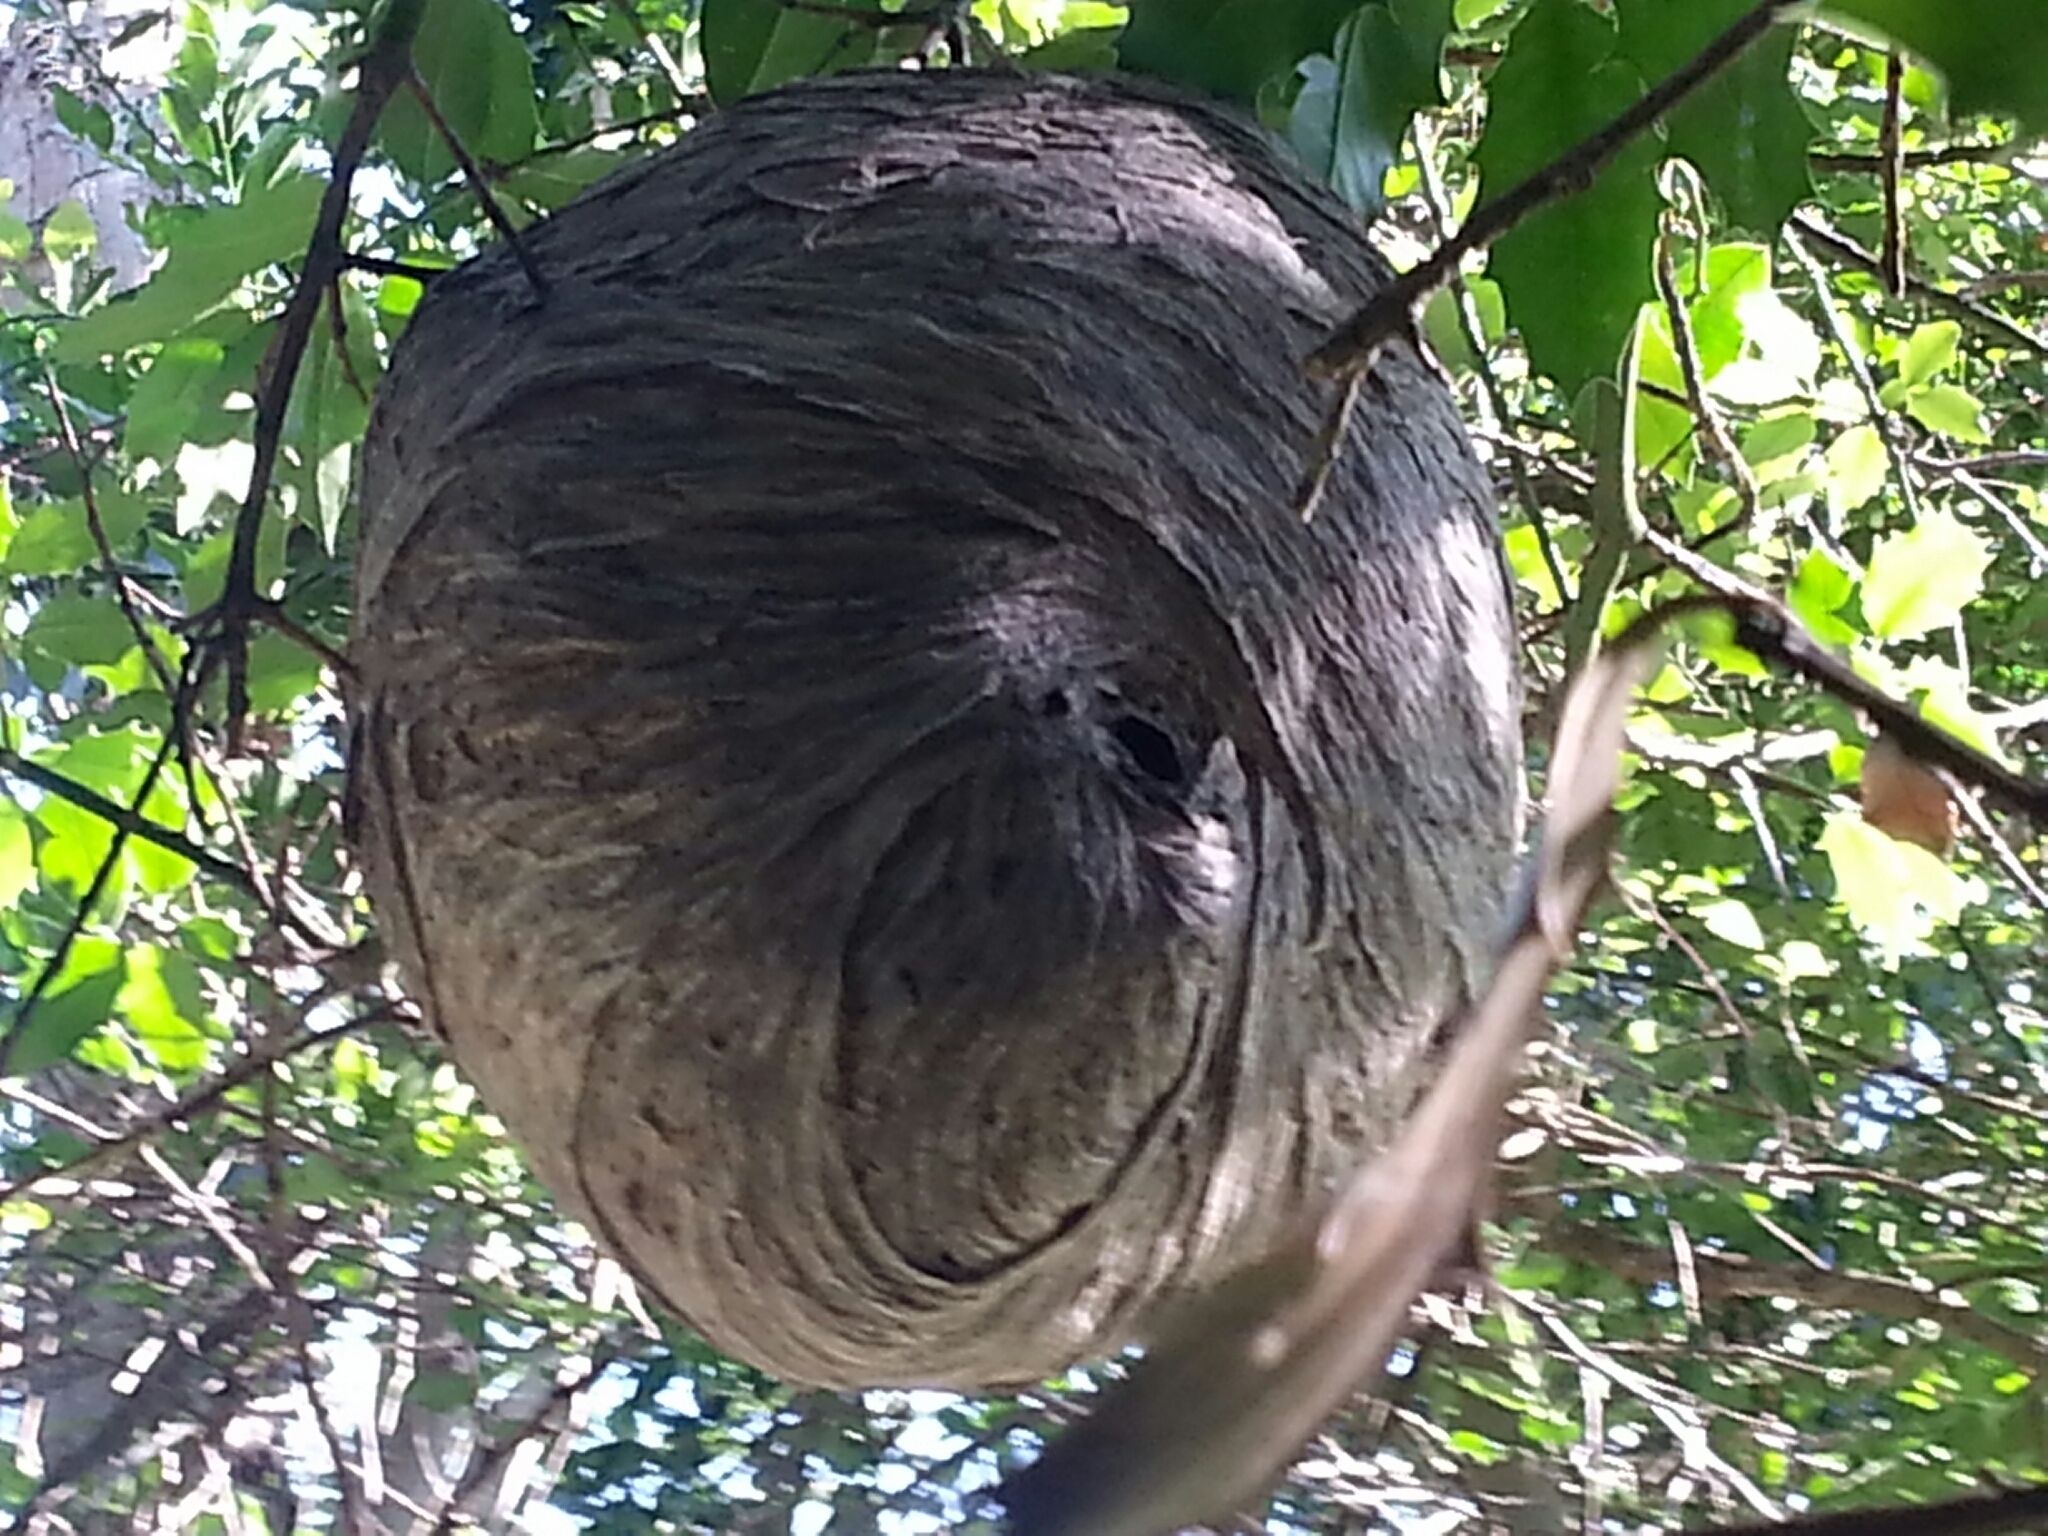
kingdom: Animalia
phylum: Arthropoda
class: Insecta
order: Hymenoptera
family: Vespidae
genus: Dolichovespula
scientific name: Dolichovespula
